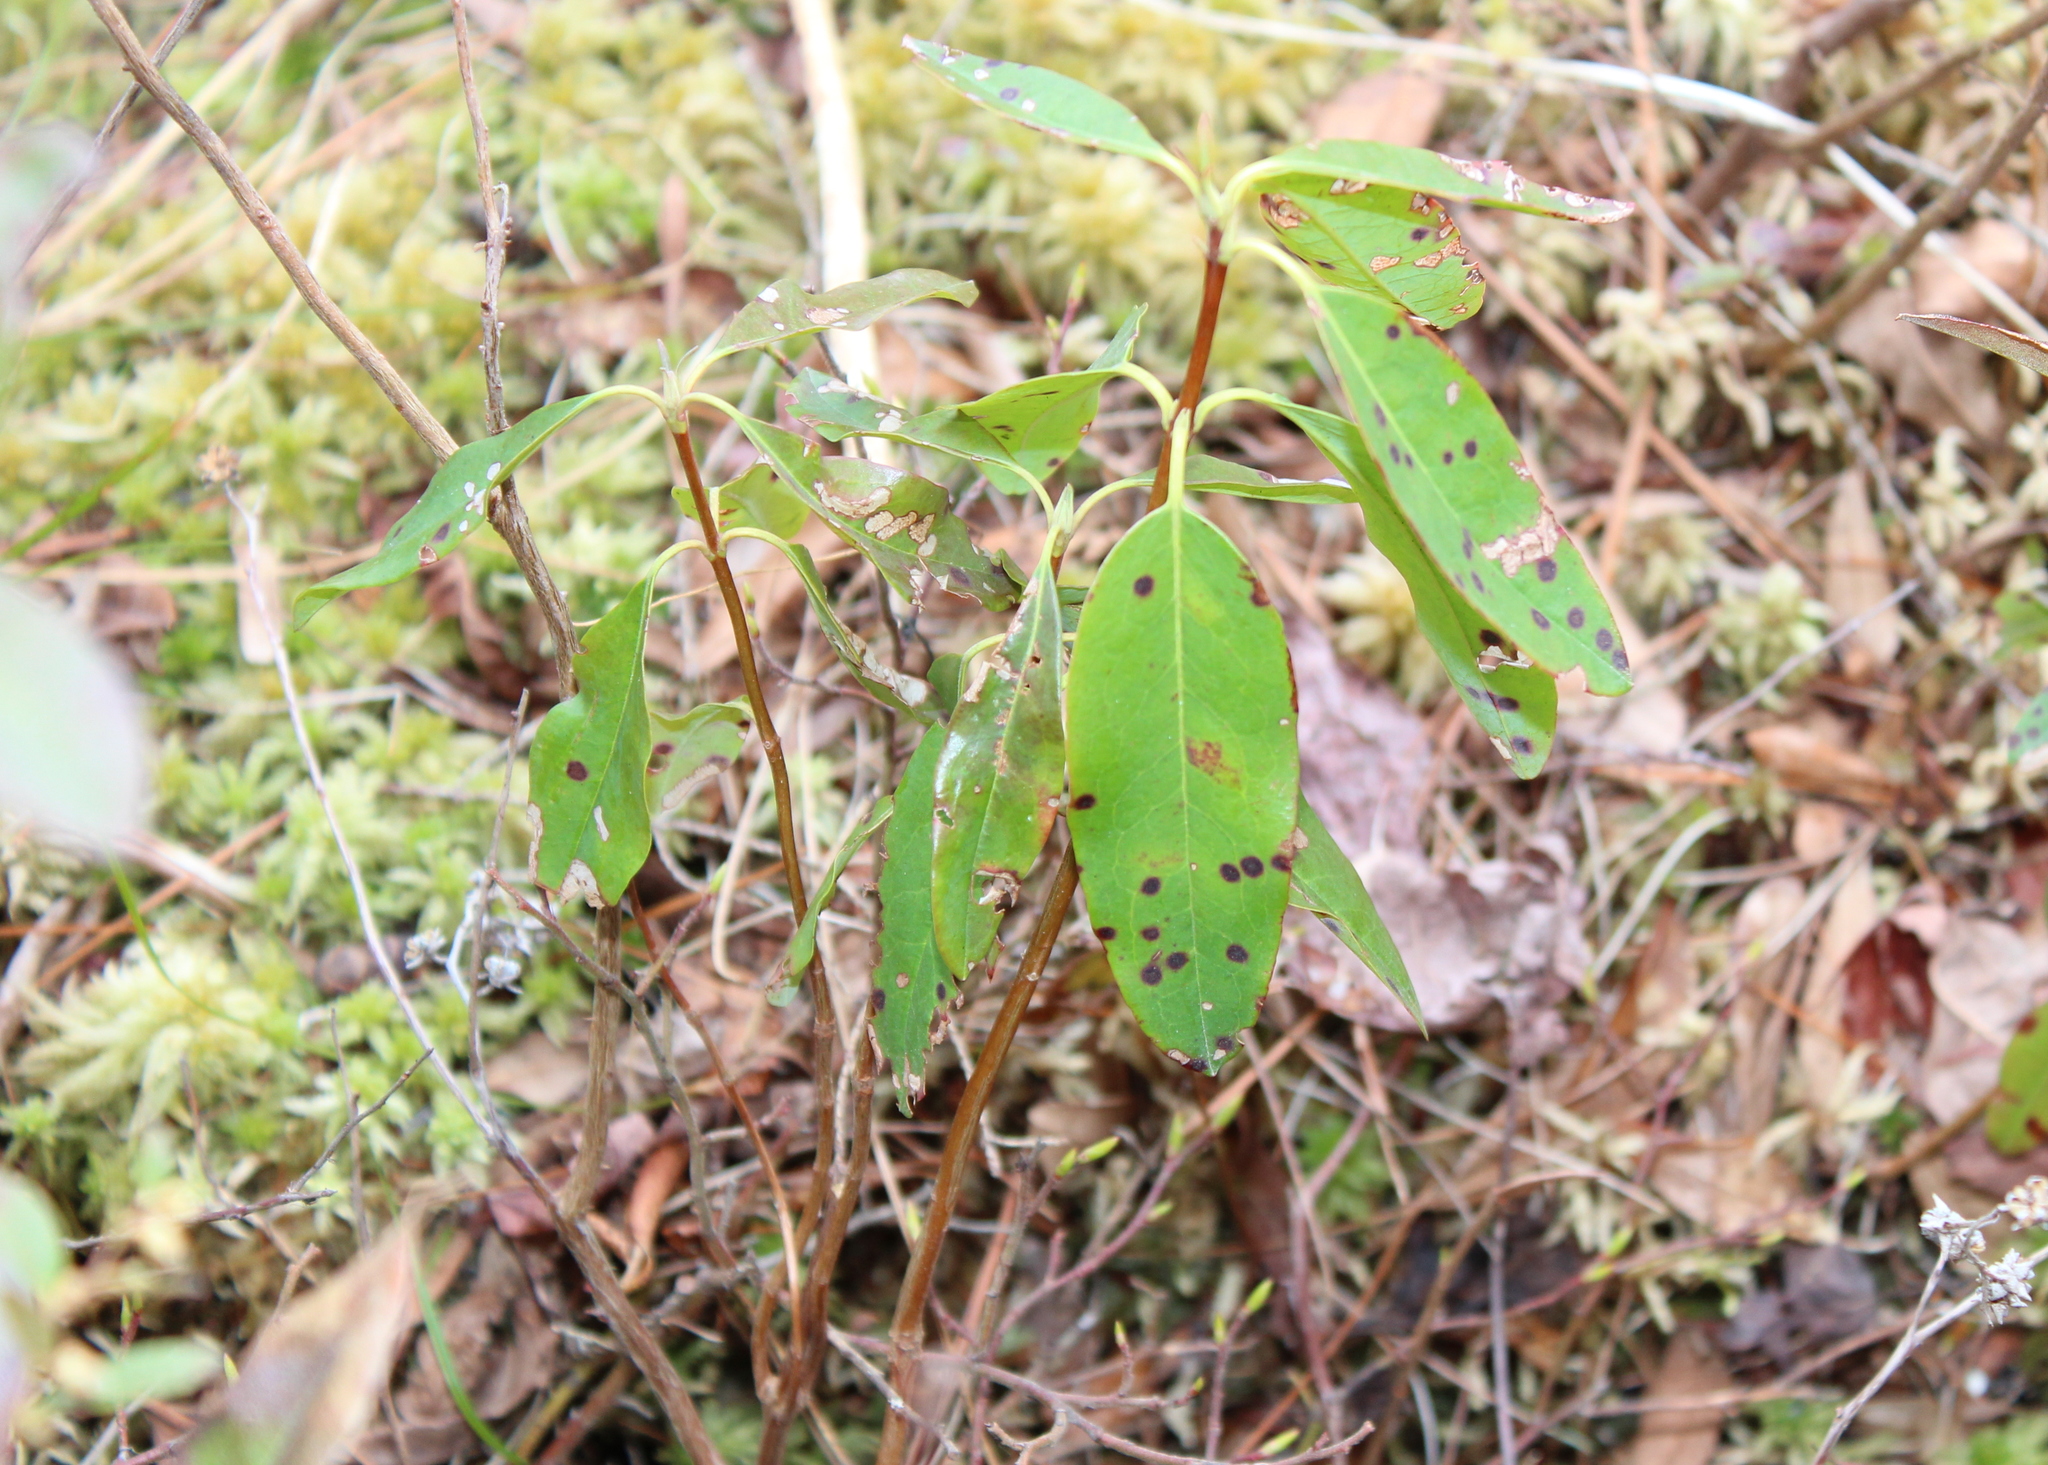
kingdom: Plantae
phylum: Tracheophyta
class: Magnoliopsida
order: Ericales
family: Ericaceae
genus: Kalmia
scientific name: Kalmia angustifolia
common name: Sheep-laurel
